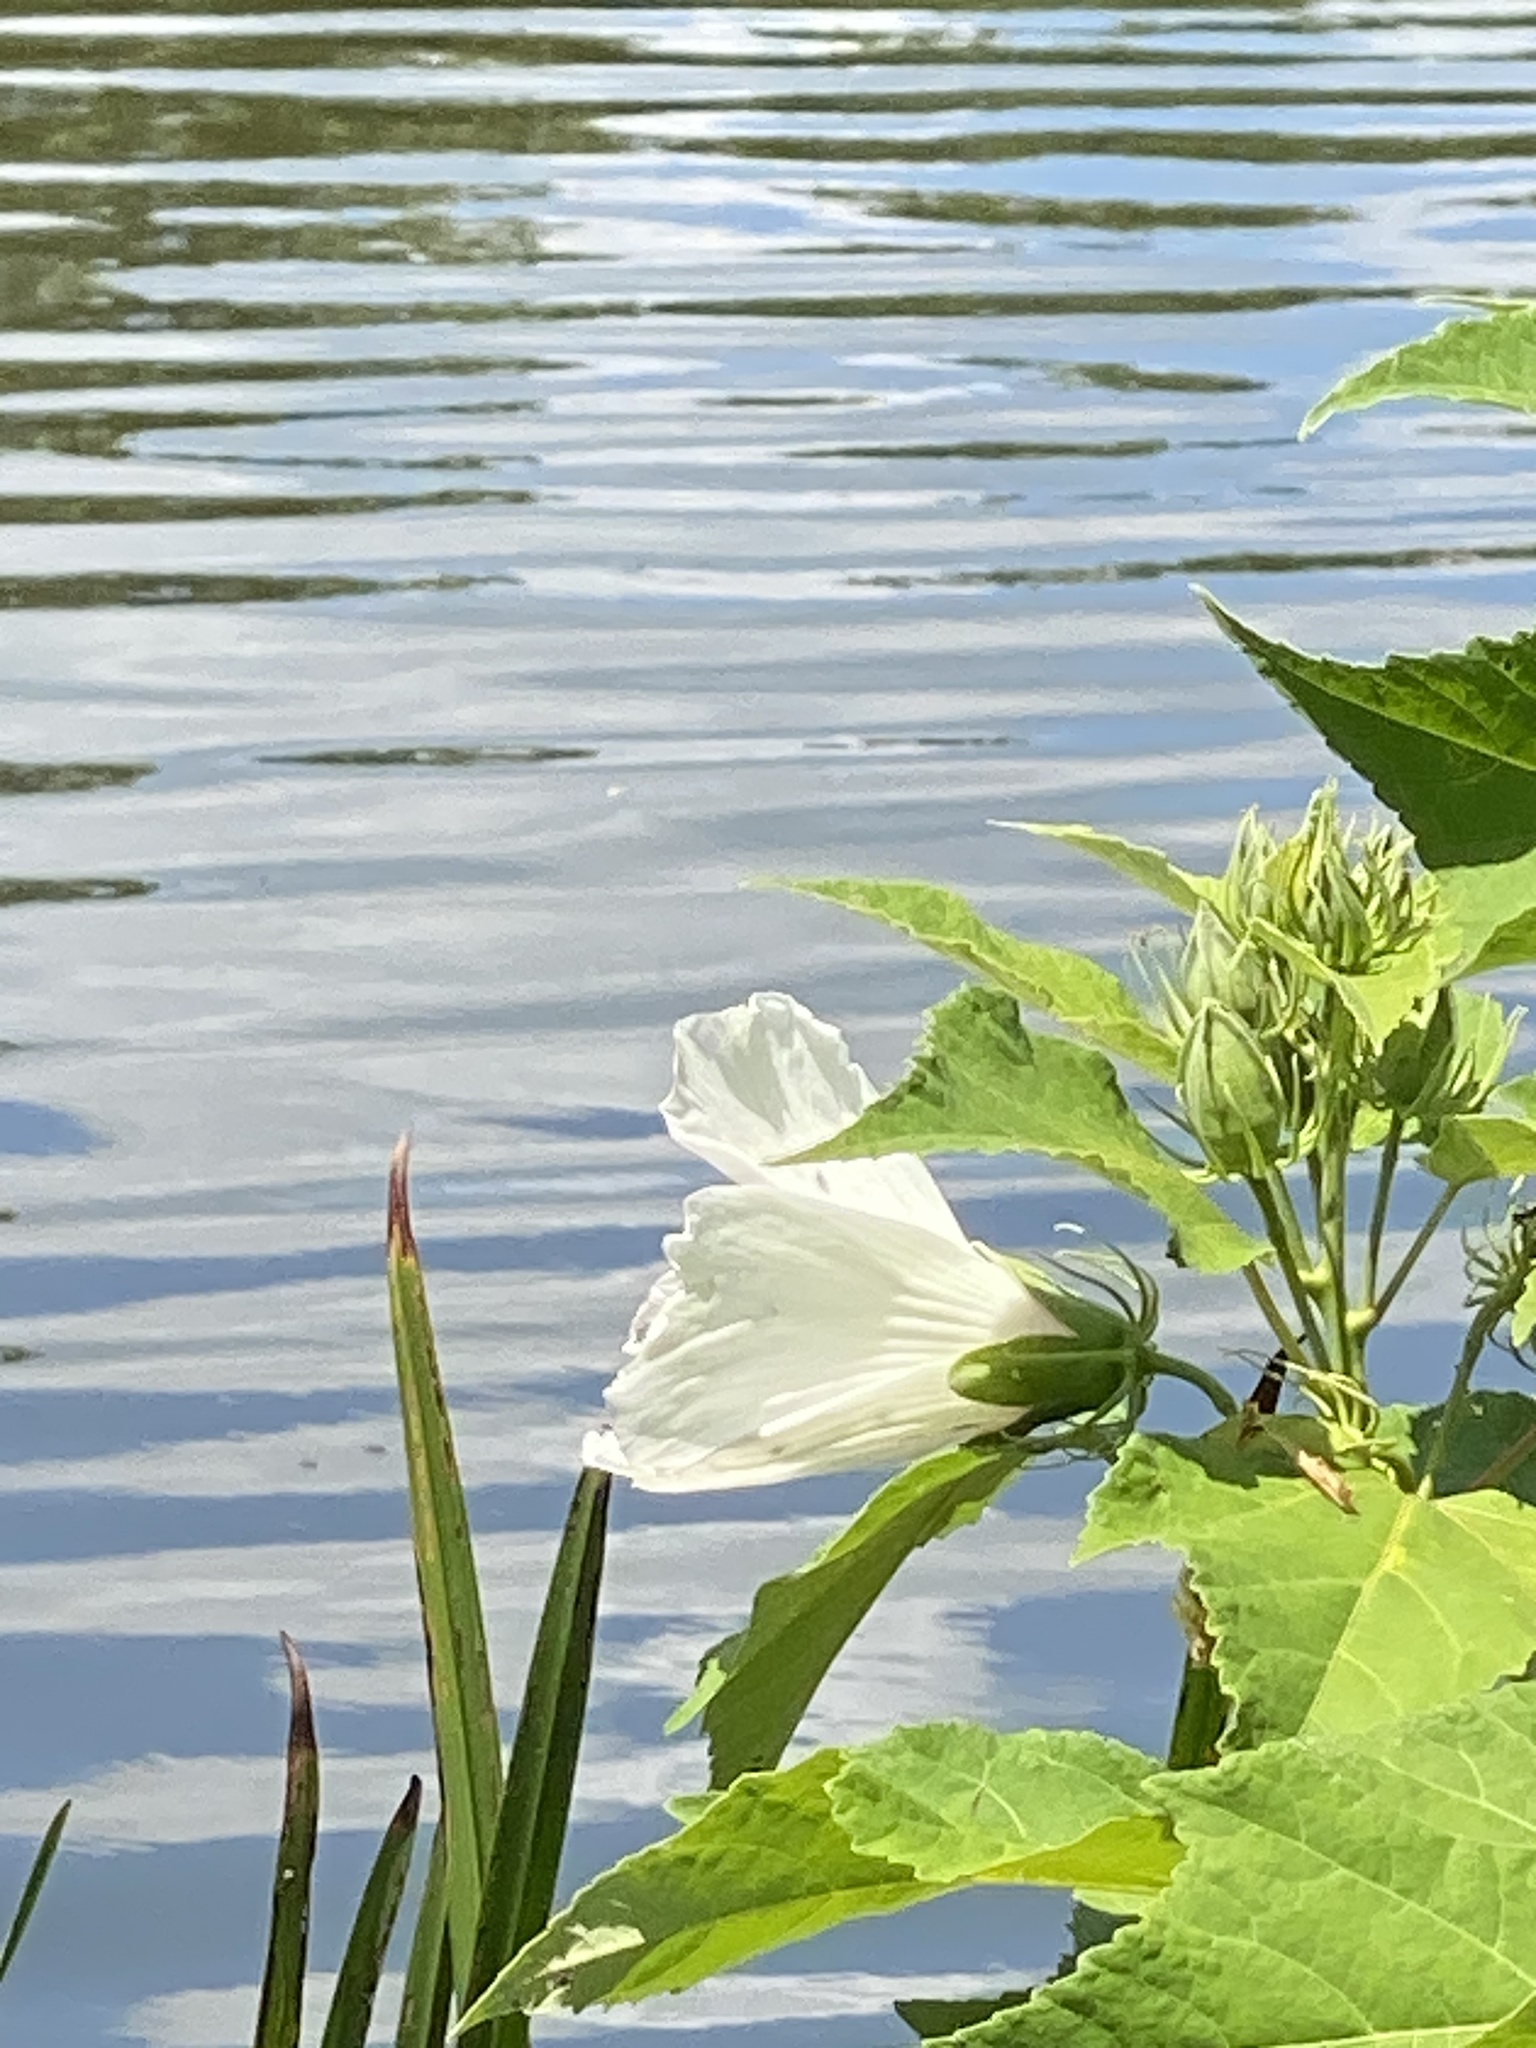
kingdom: Plantae
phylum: Tracheophyta
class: Magnoliopsida
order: Malvales
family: Malvaceae
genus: Hibiscus
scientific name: Hibiscus moscheutos
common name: Common rose-mallow
